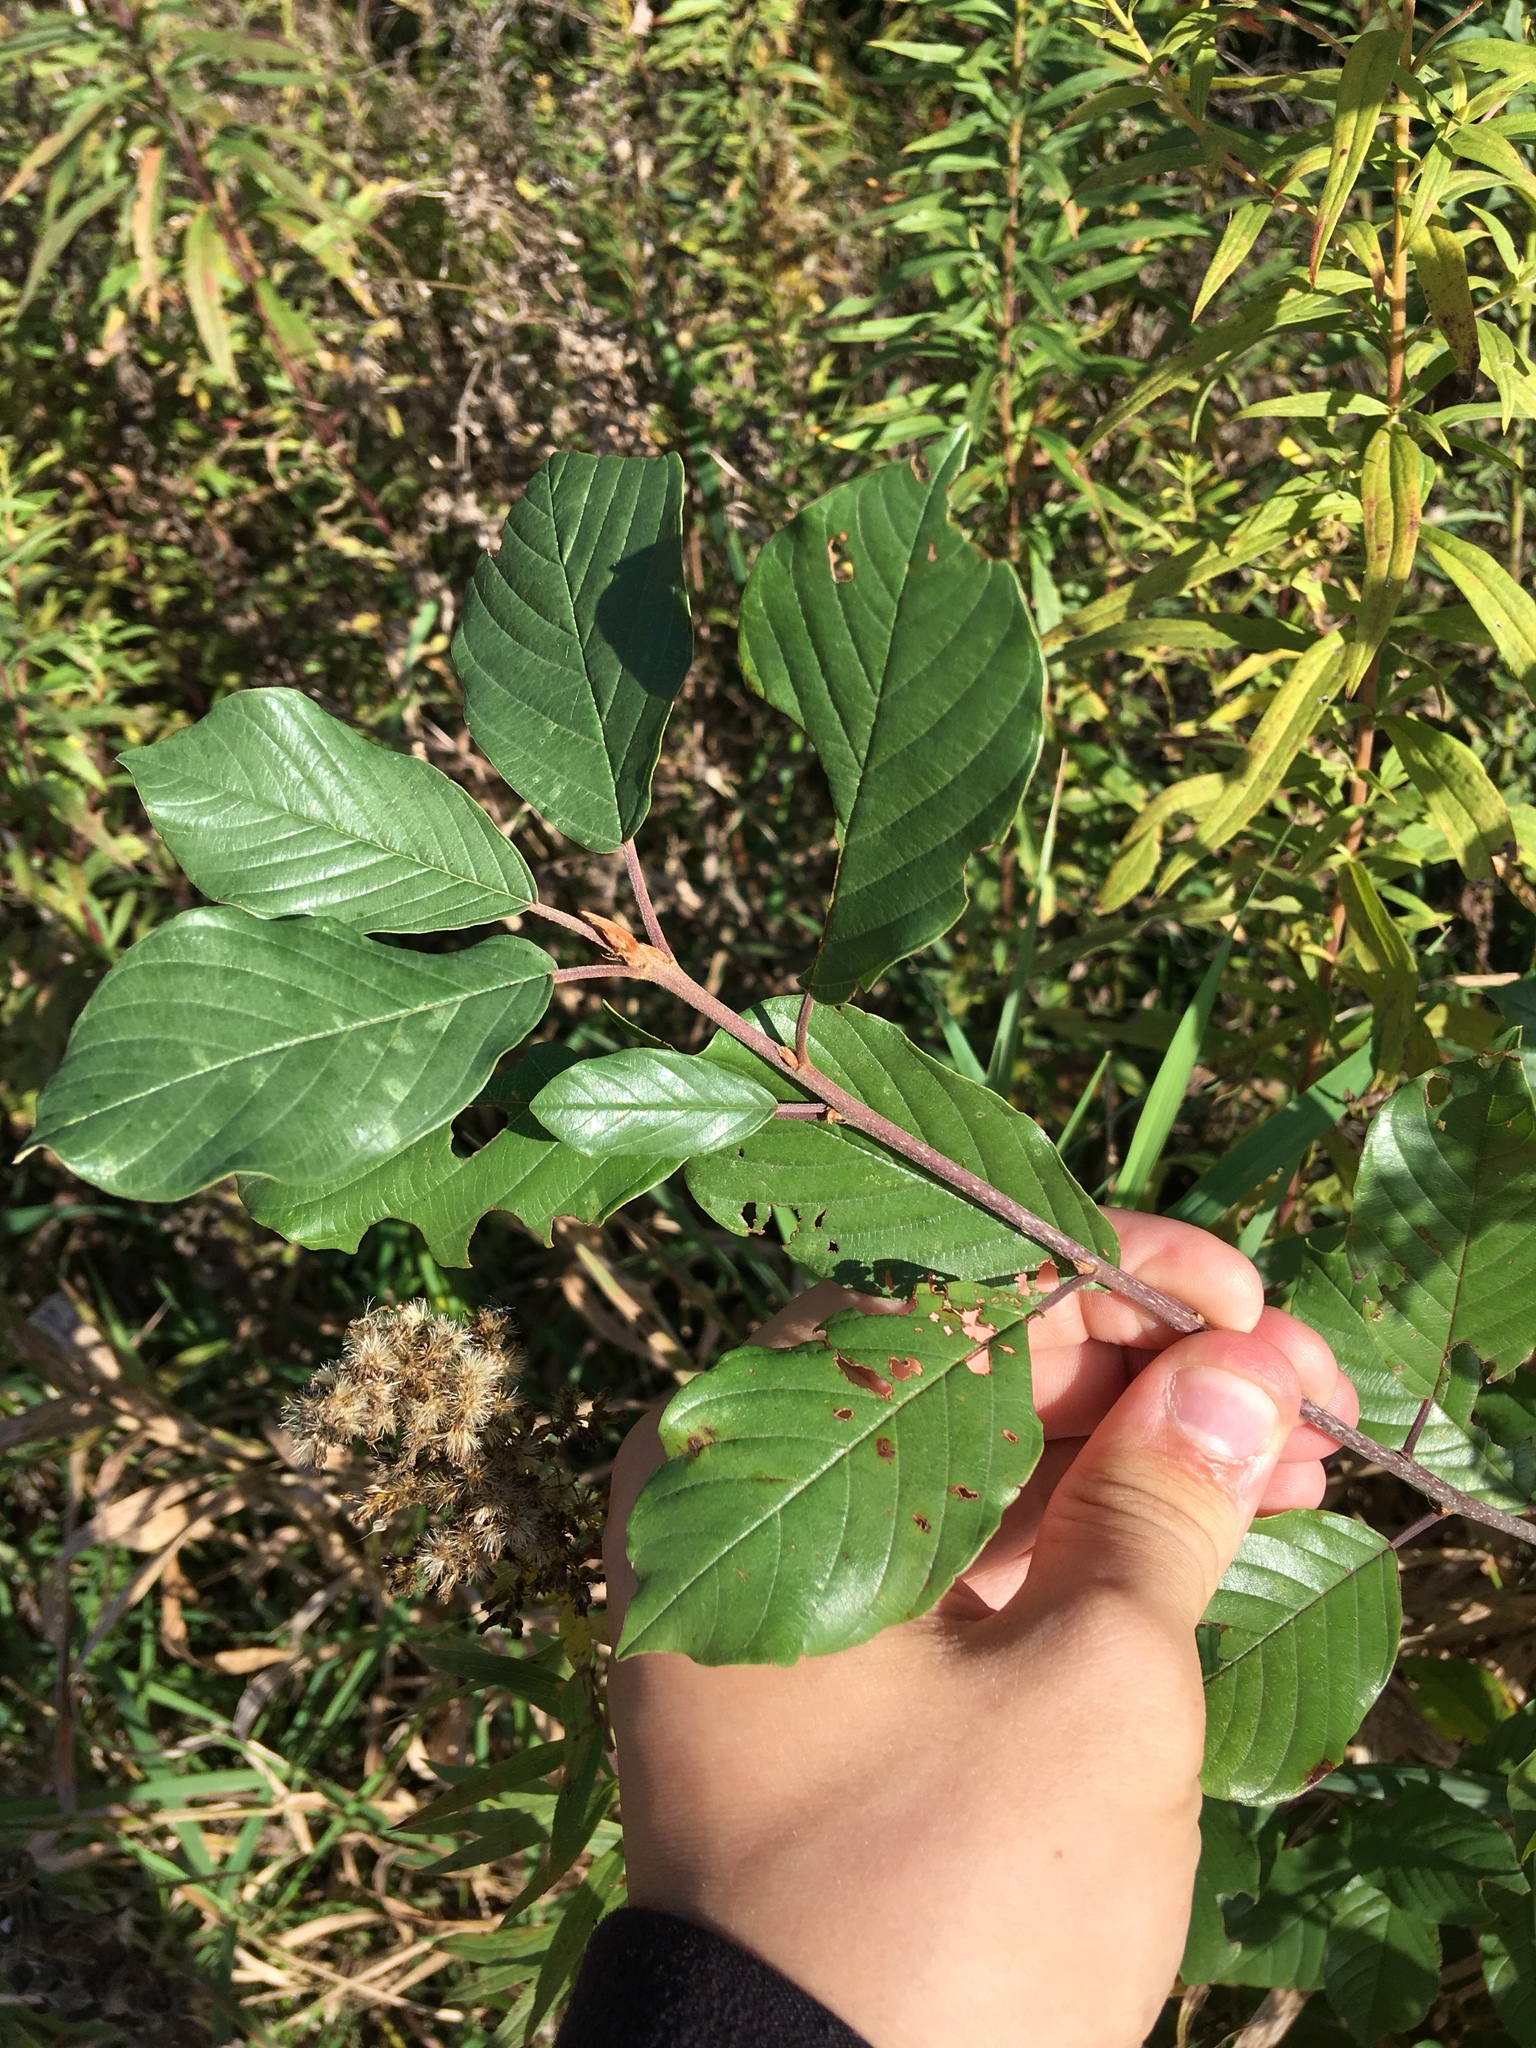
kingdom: Plantae
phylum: Tracheophyta
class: Magnoliopsida
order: Rosales
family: Rhamnaceae
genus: Frangula
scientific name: Frangula alnus
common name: Alder buckthorn
